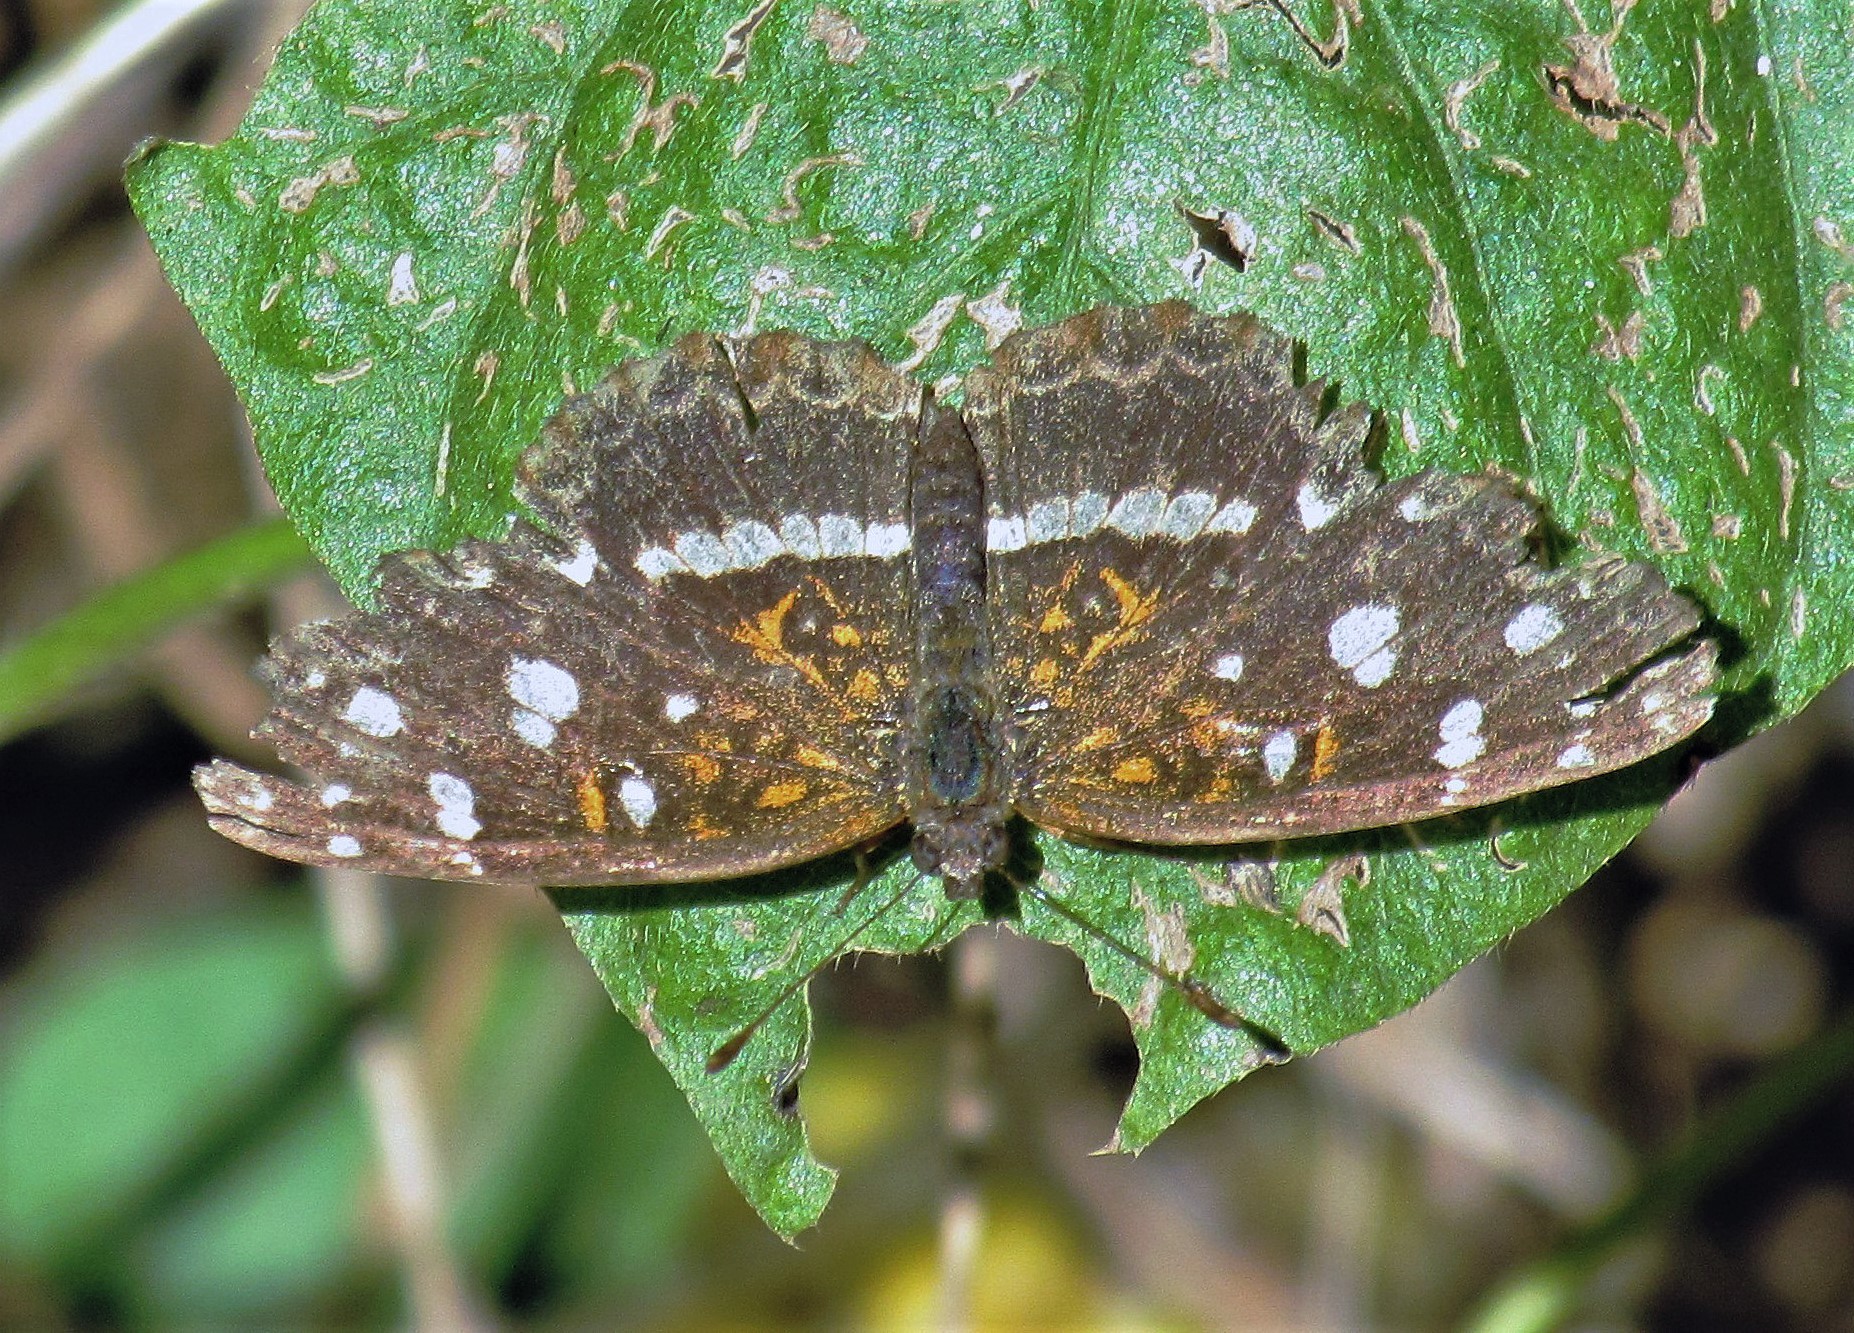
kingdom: Animalia
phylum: Arthropoda
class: Insecta
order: Lepidoptera
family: Nymphalidae
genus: Ortilia
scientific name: Ortilia ithra
